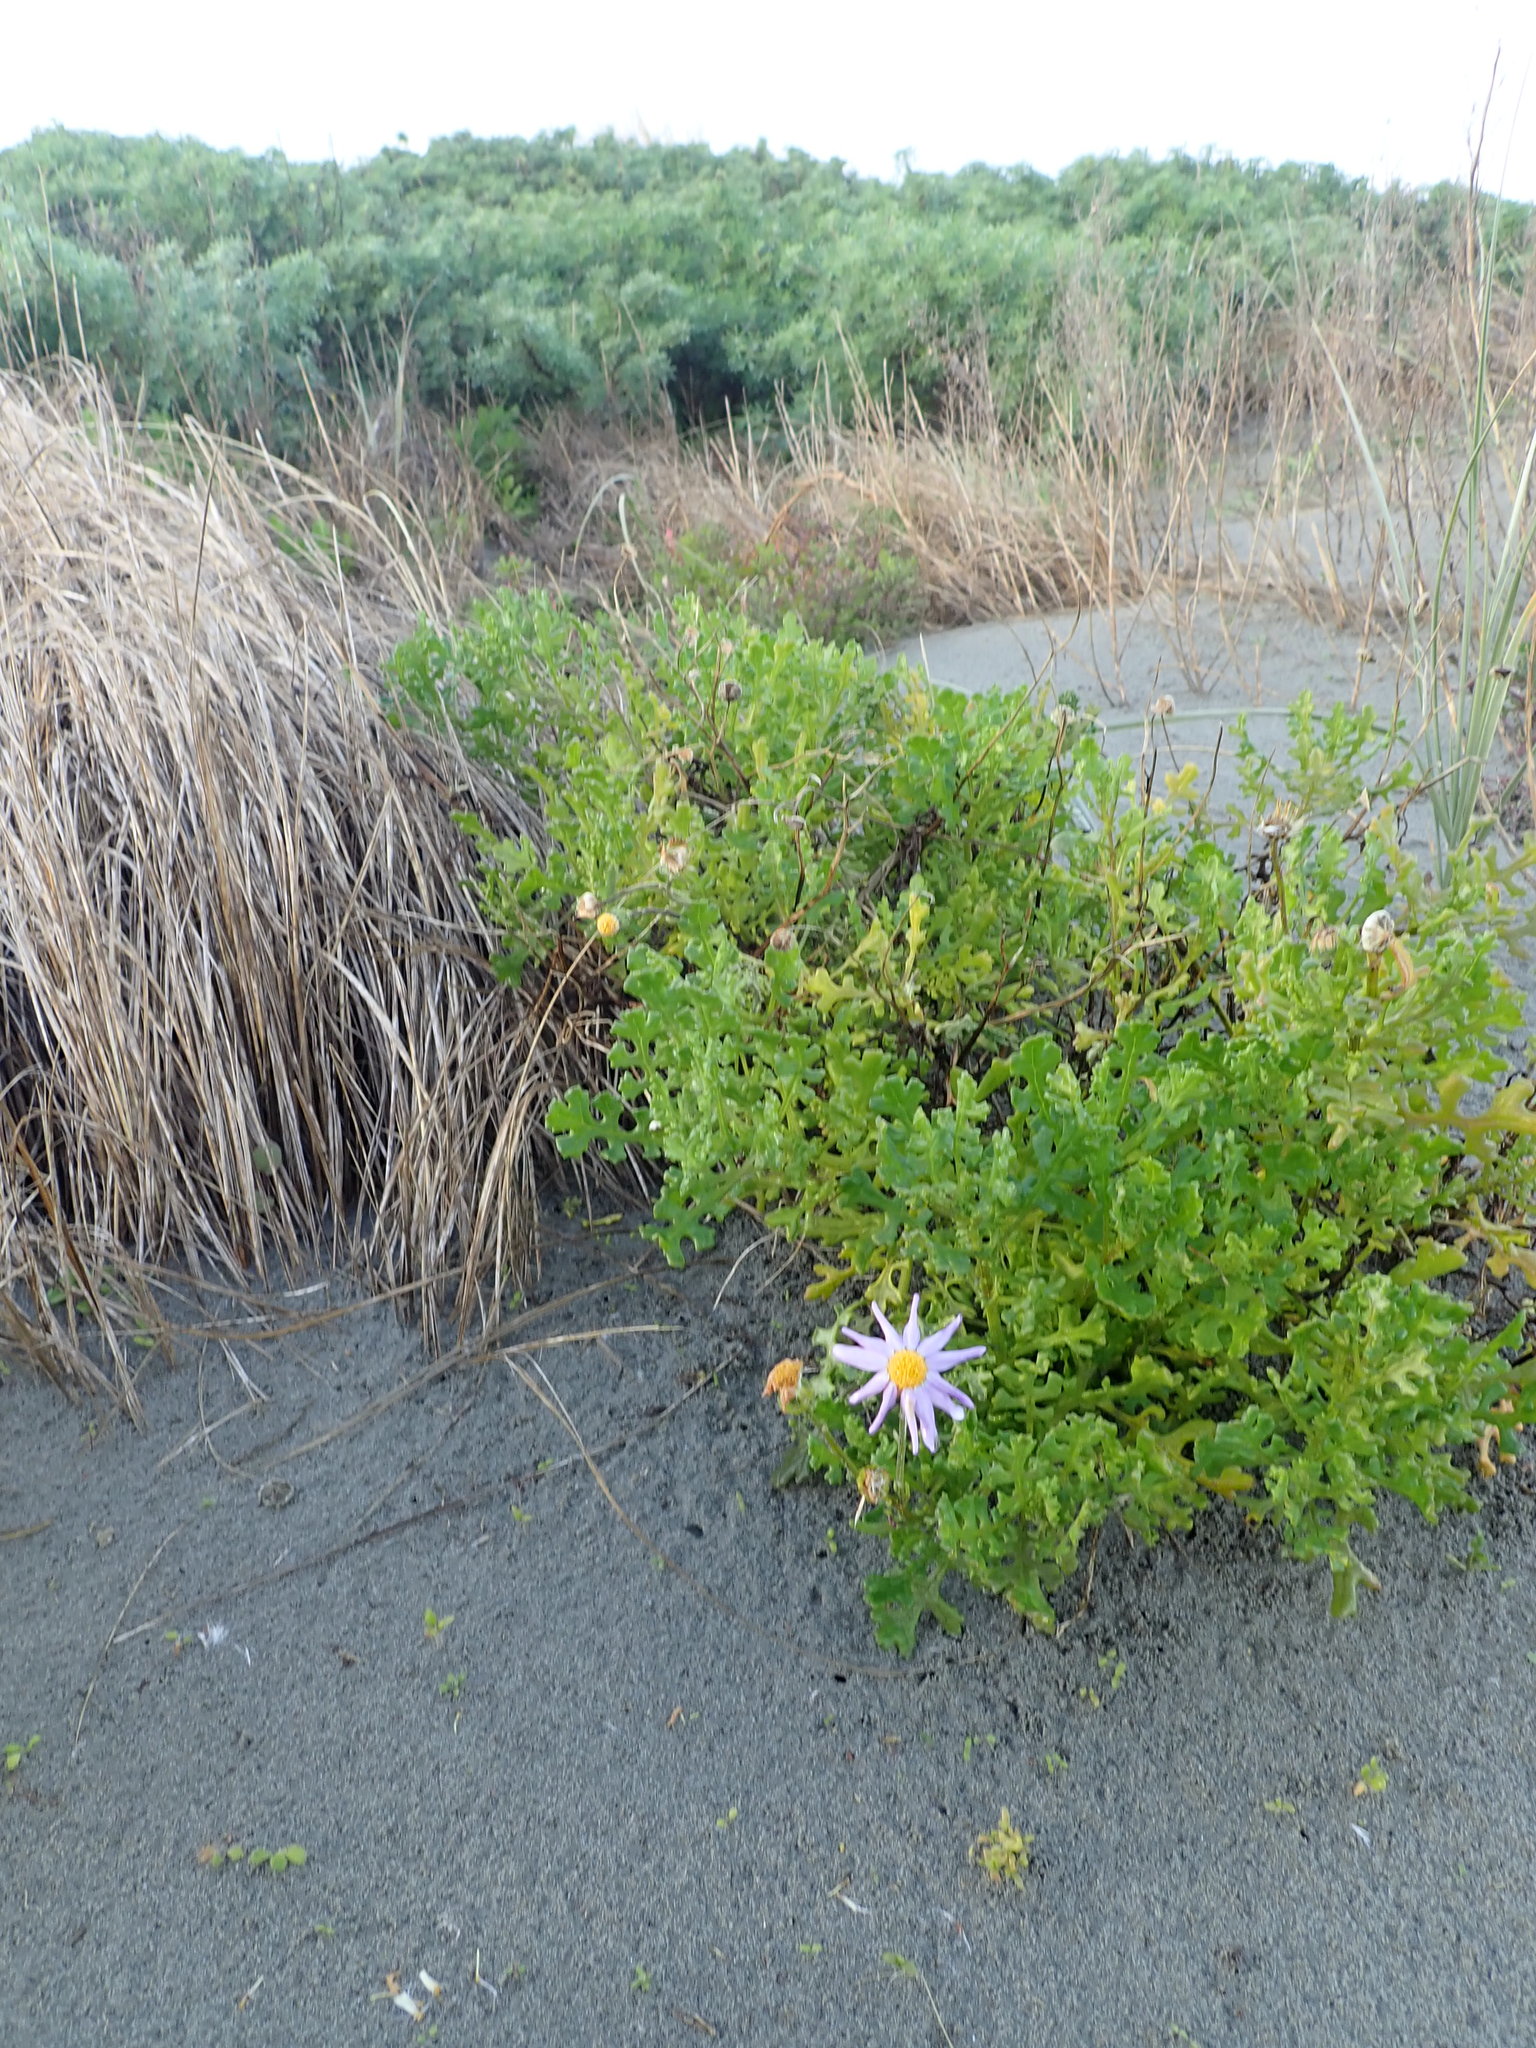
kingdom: Plantae
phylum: Tracheophyta
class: Magnoliopsida
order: Asterales
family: Asteraceae
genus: Senecio
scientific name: Senecio elegans
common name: Purple groundsel
